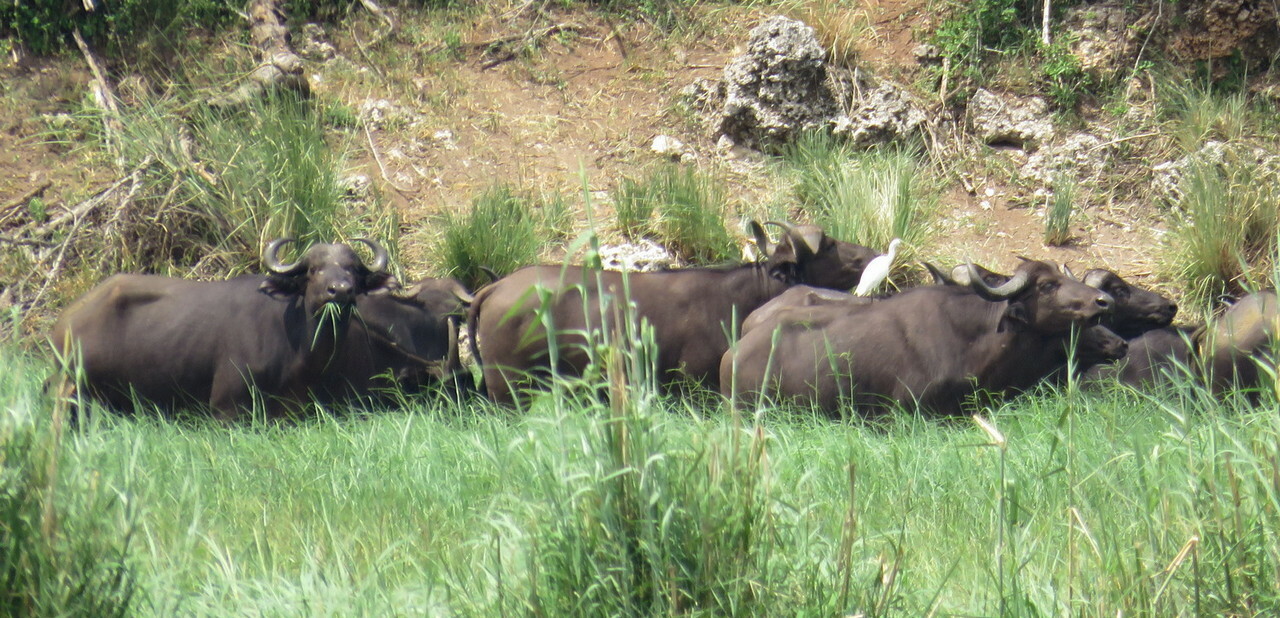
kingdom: Animalia
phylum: Chordata
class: Mammalia
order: Artiodactyla
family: Bovidae
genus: Syncerus
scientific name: Syncerus caffer
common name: African buffalo
